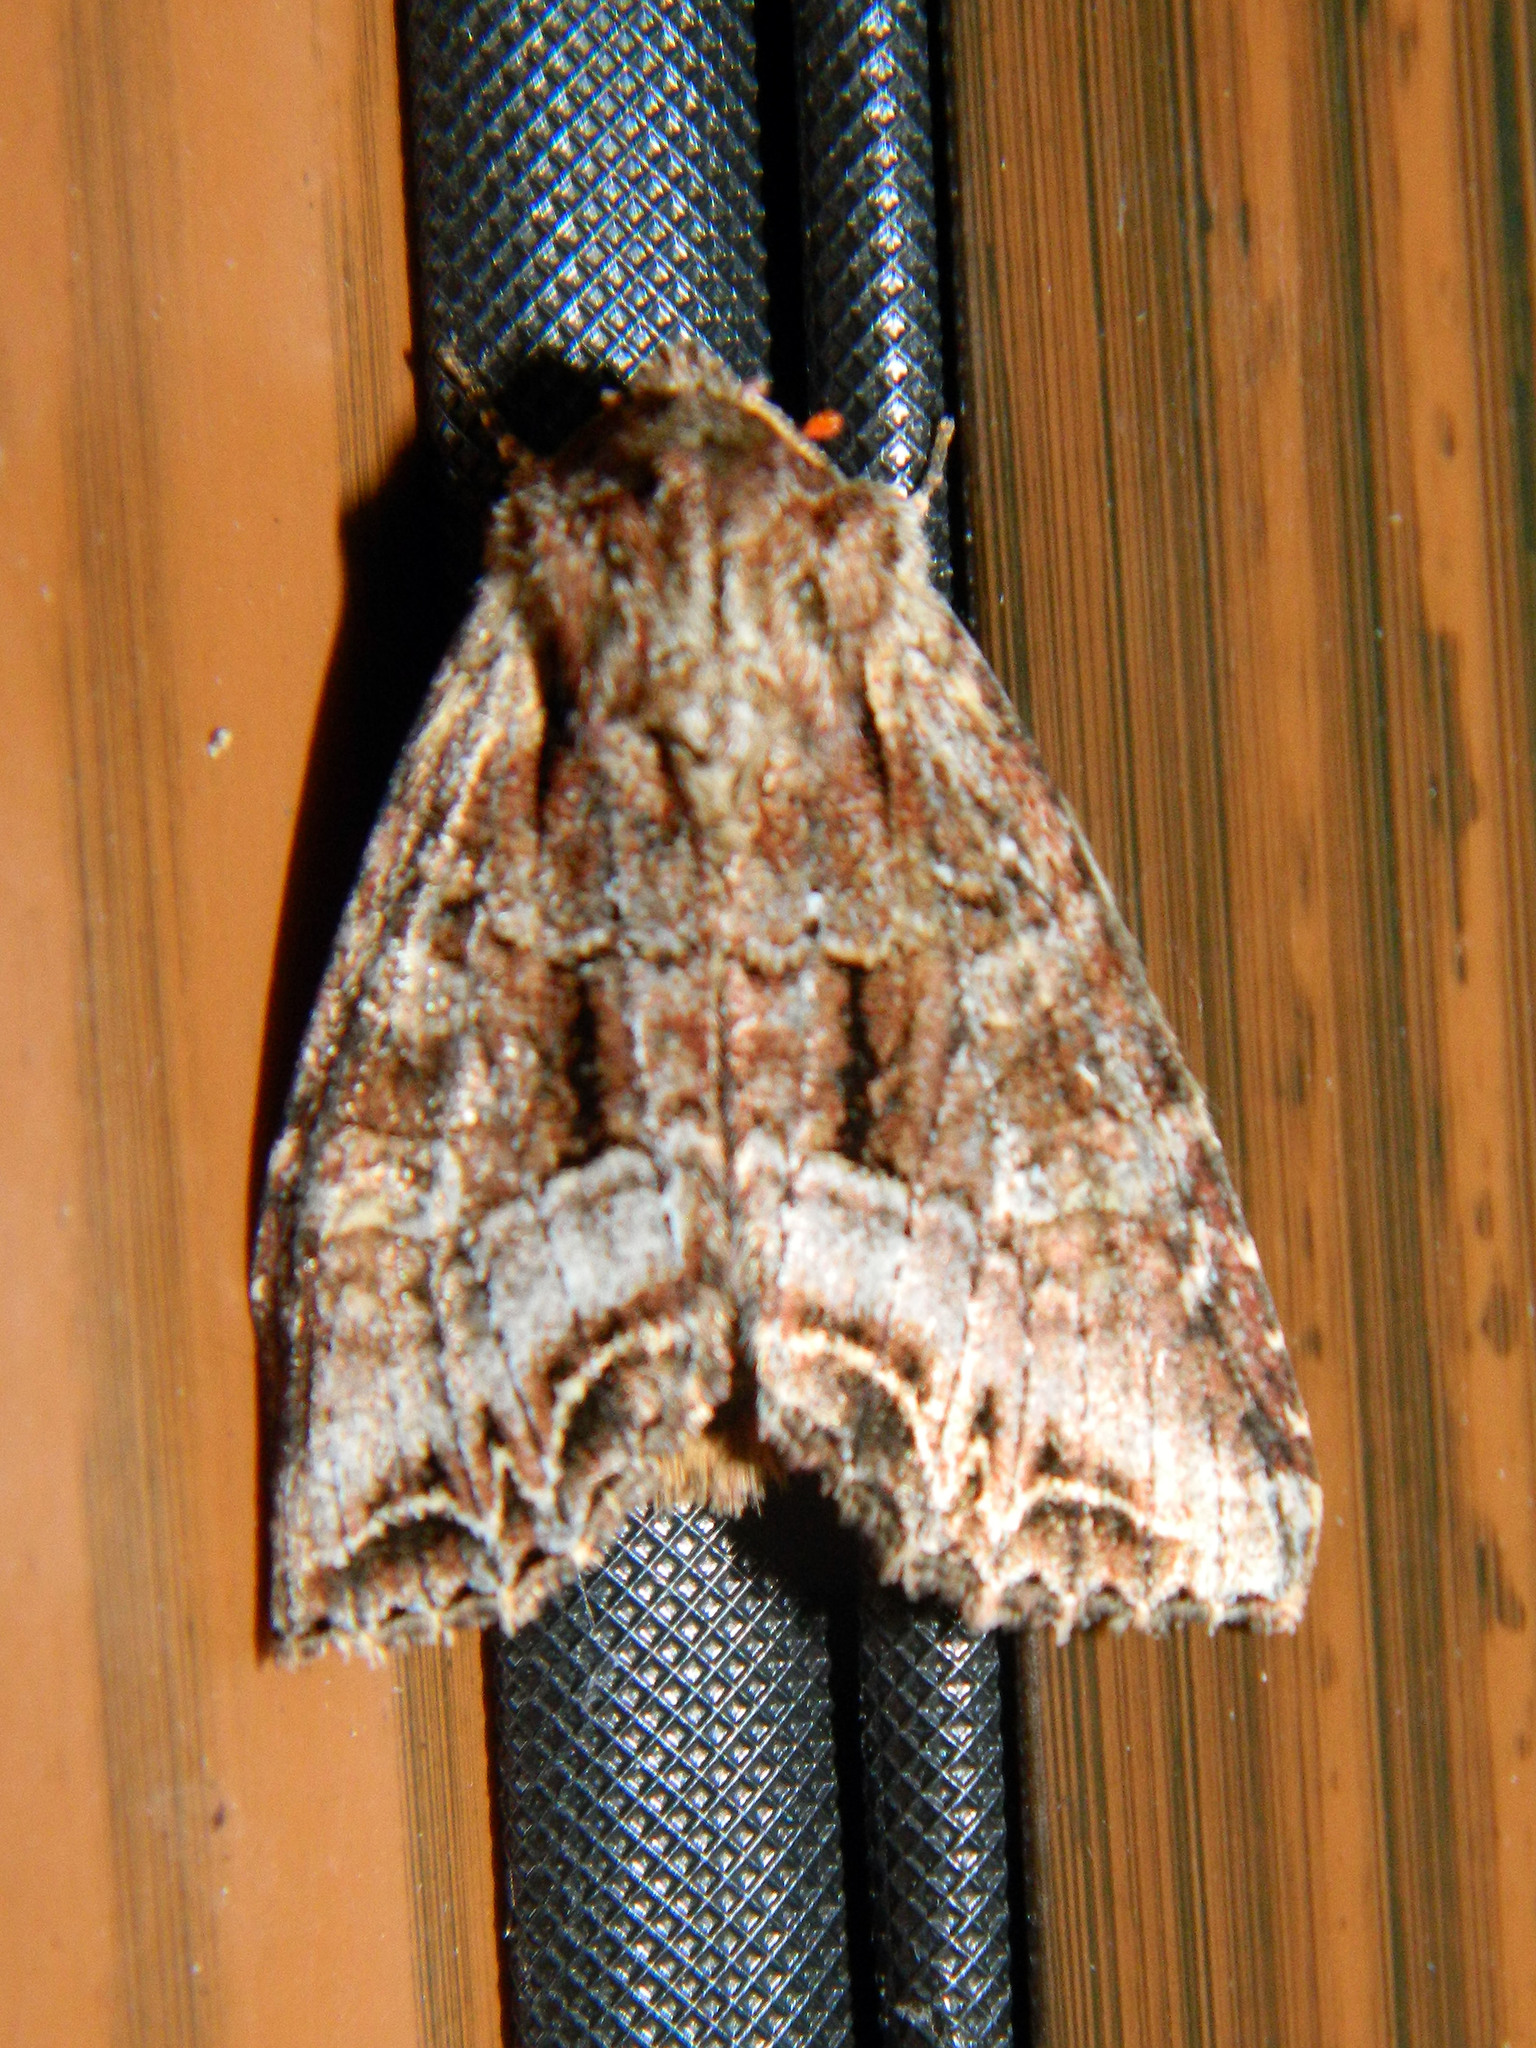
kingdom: Animalia
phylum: Arthropoda
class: Insecta
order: Lepidoptera
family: Noctuidae
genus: Lacanobia
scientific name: Lacanobia grandis
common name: Grand arches moth
